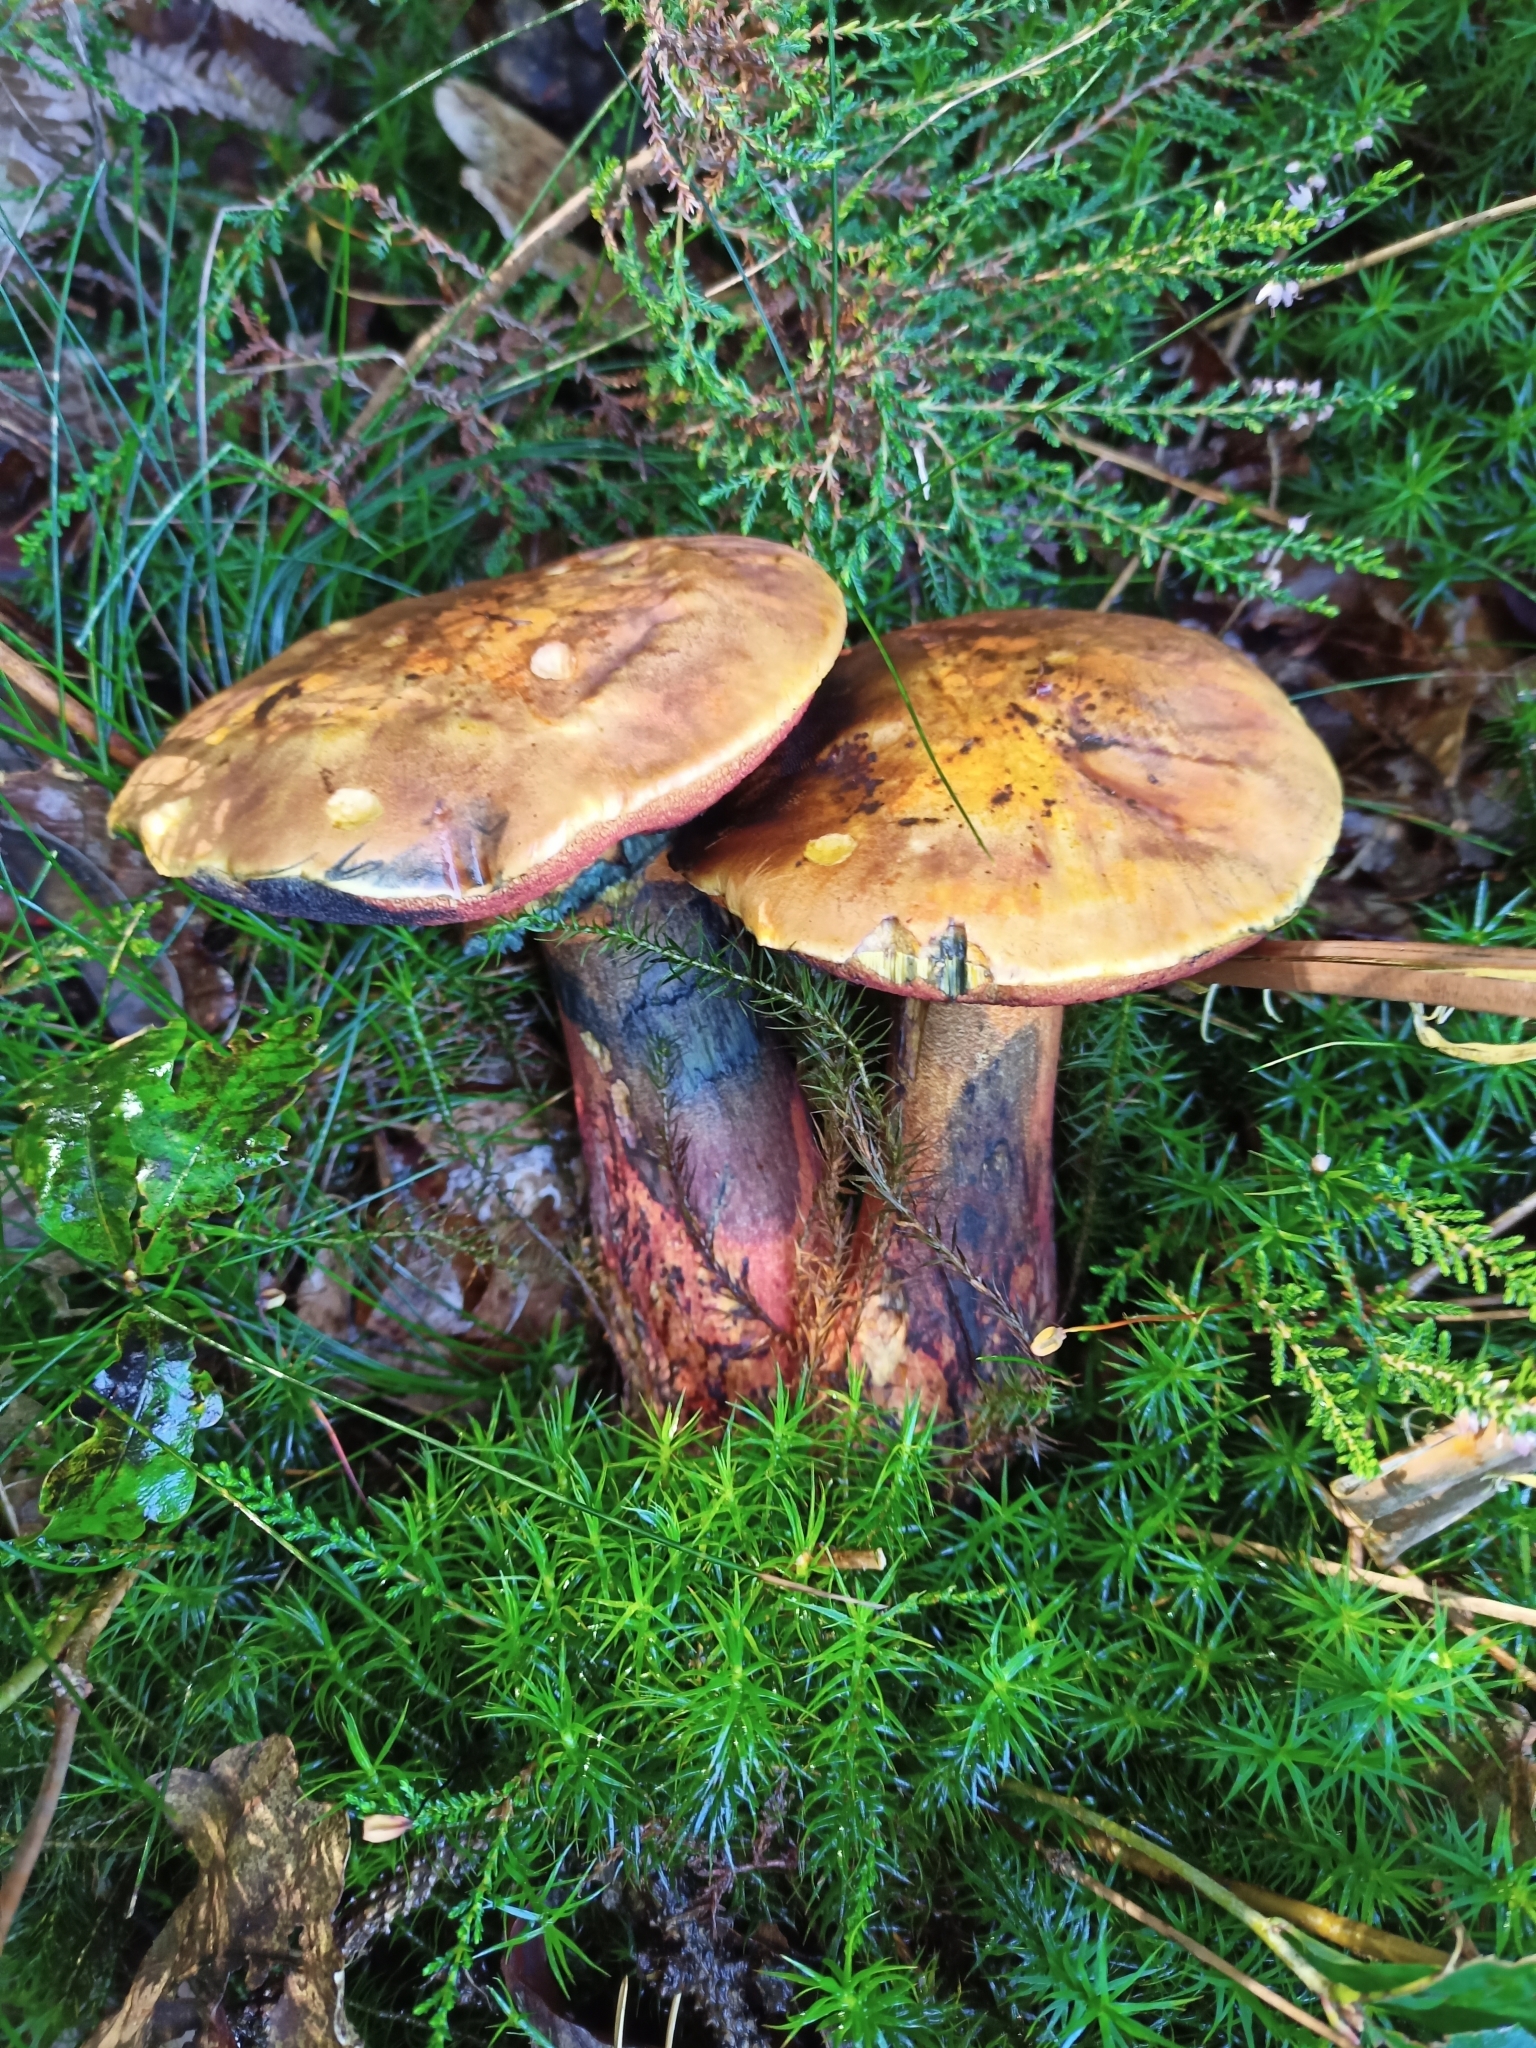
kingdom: Fungi
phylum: Basidiomycota
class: Agaricomycetes
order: Boletales
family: Boletaceae
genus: Neoboletus
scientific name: Neoboletus erythropus
